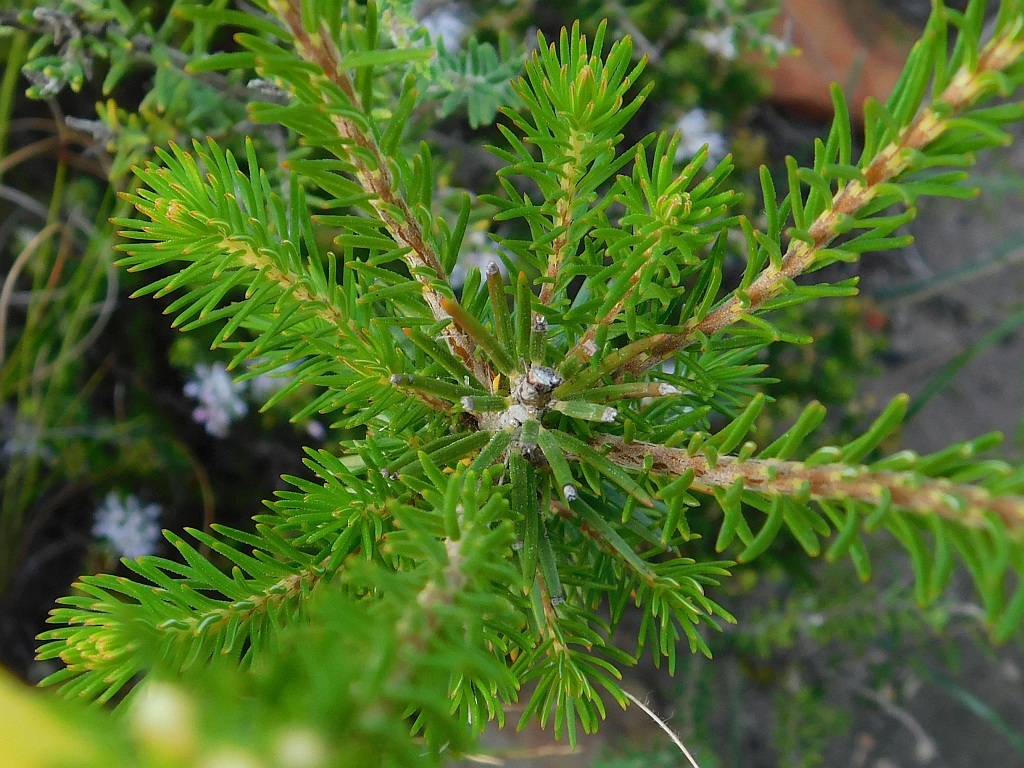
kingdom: Plantae
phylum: Tracheophyta
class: Magnoliopsida
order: Ericales
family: Ericaceae
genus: Erica
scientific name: Erica viscaria
